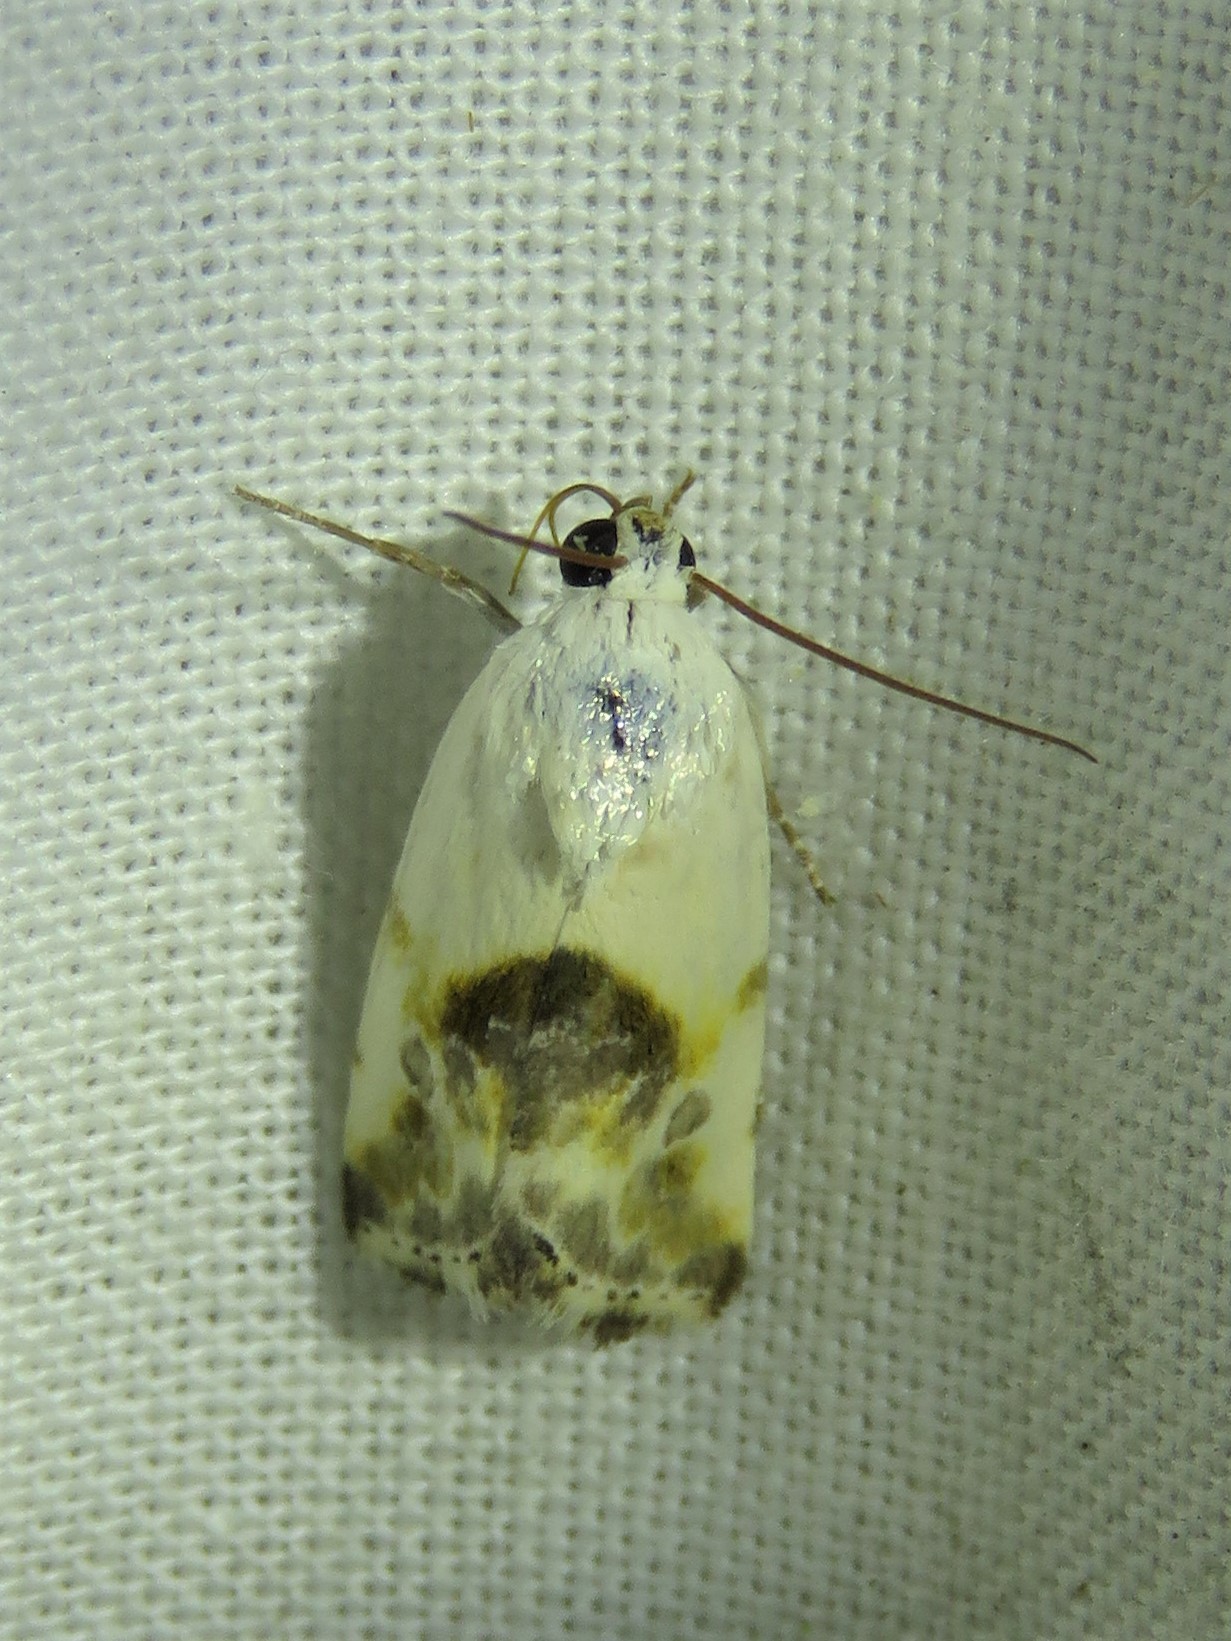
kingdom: Animalia
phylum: Arthropoda
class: Insecta
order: Lepidoptera
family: Noctuidae
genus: Acontia
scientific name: Acontia candefacta
